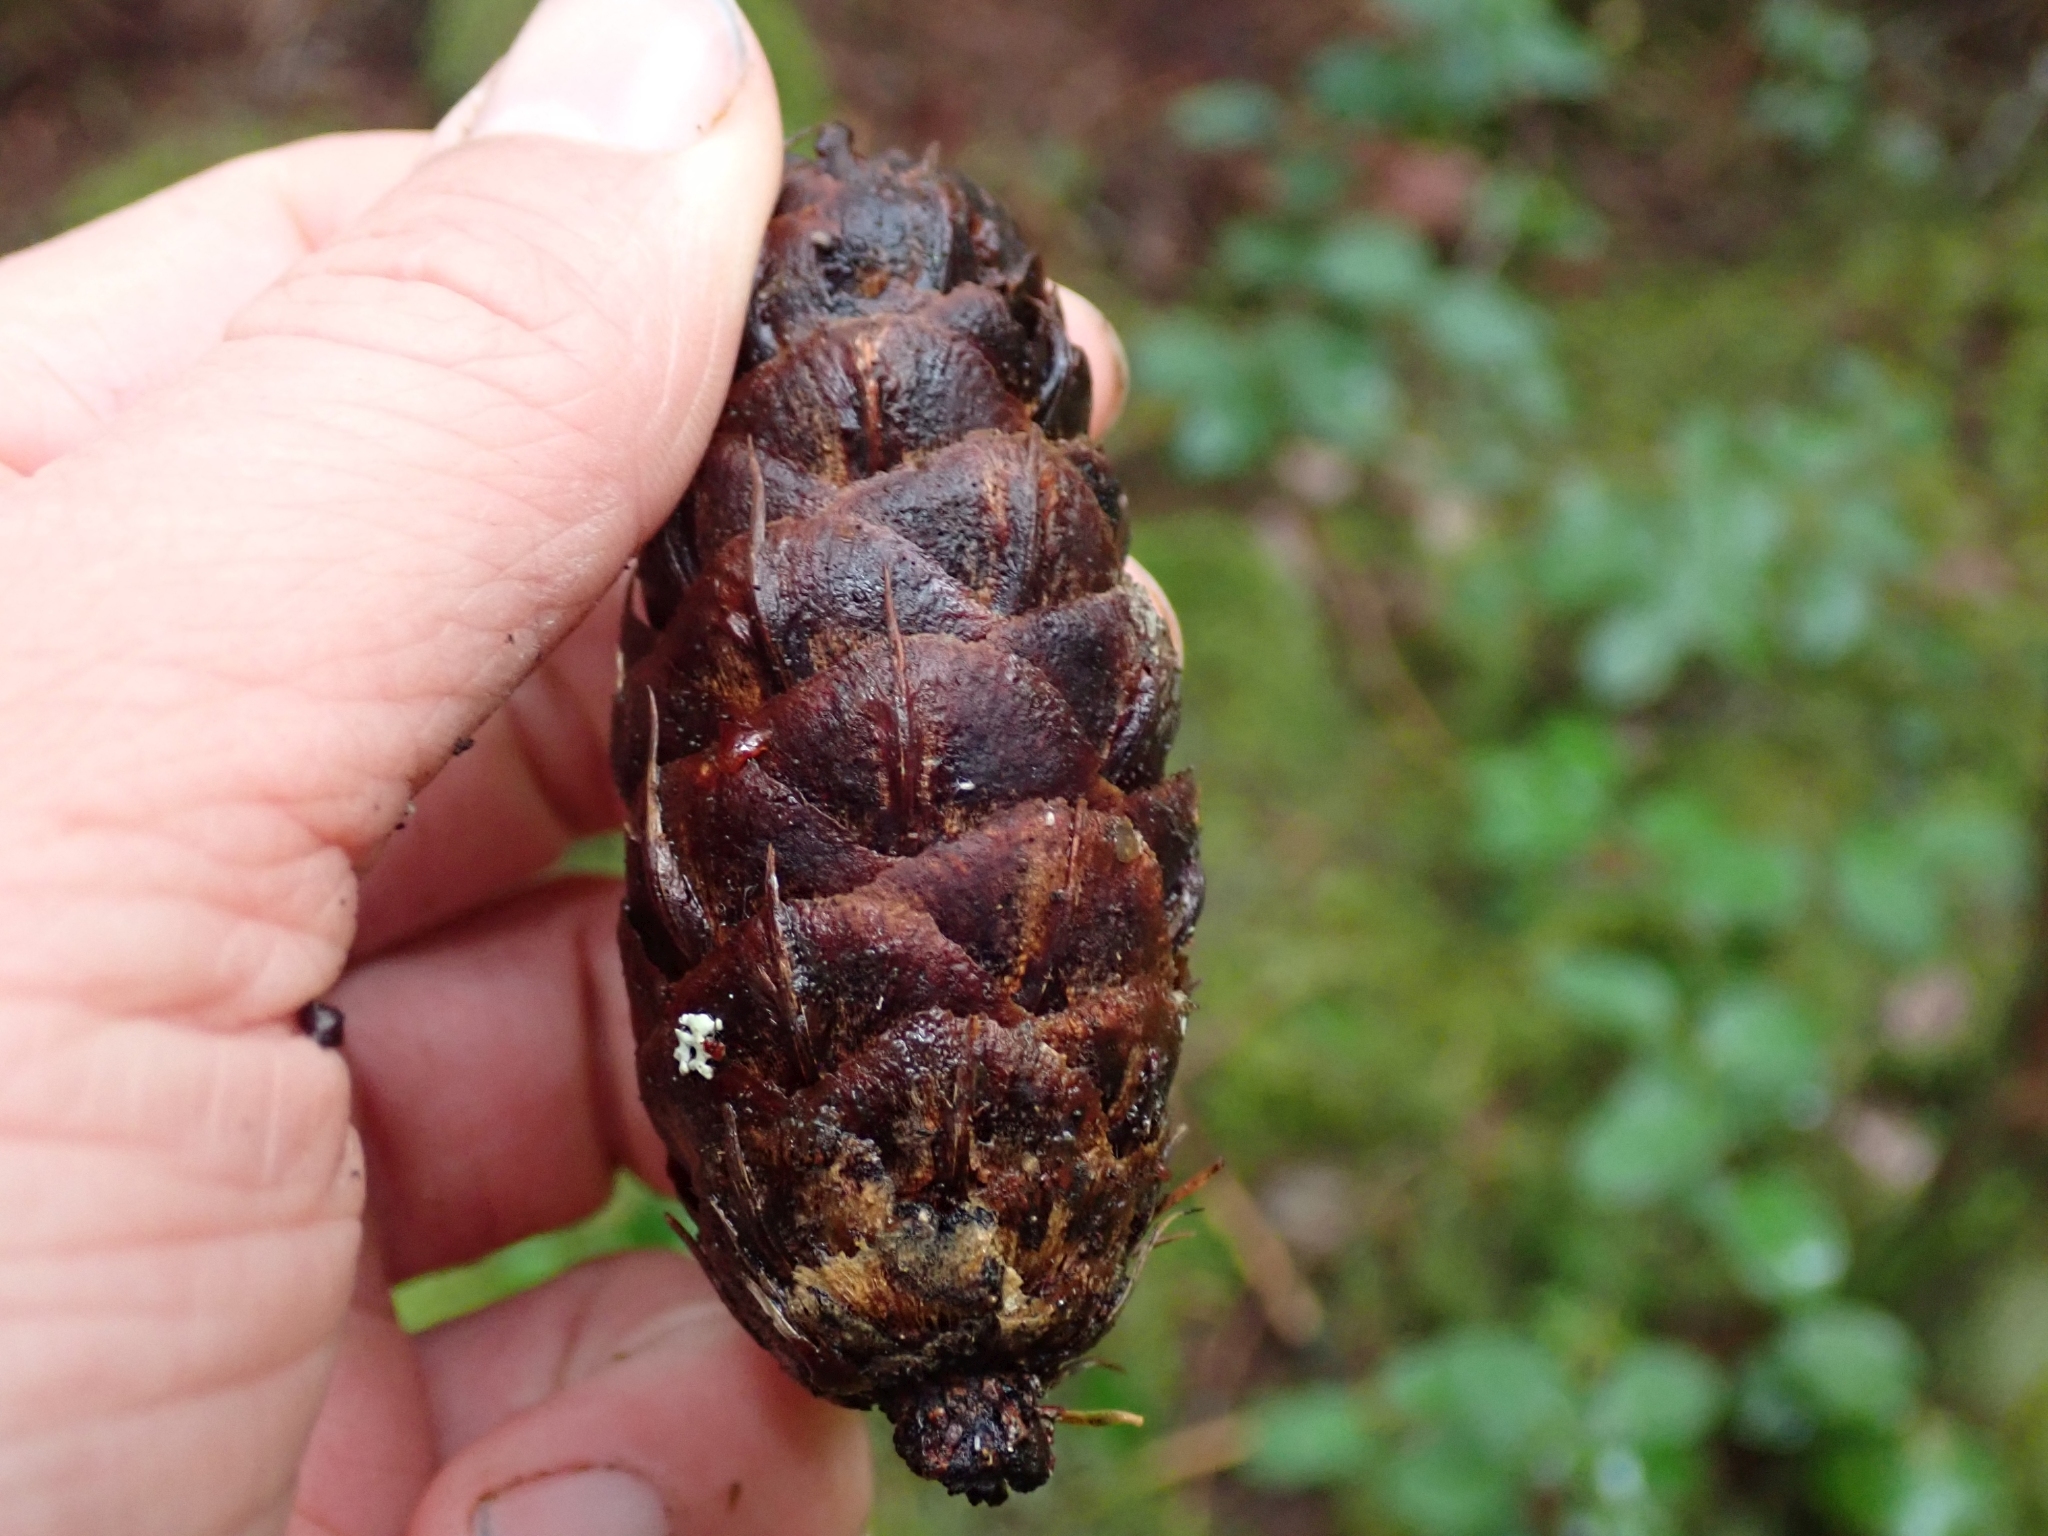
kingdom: Plantae
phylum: Tracheophyta
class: Pinopsida
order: Pinales
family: Pinaceae
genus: Pseudotsuga
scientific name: Pseudotsuga menziesii
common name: Douglas fir
